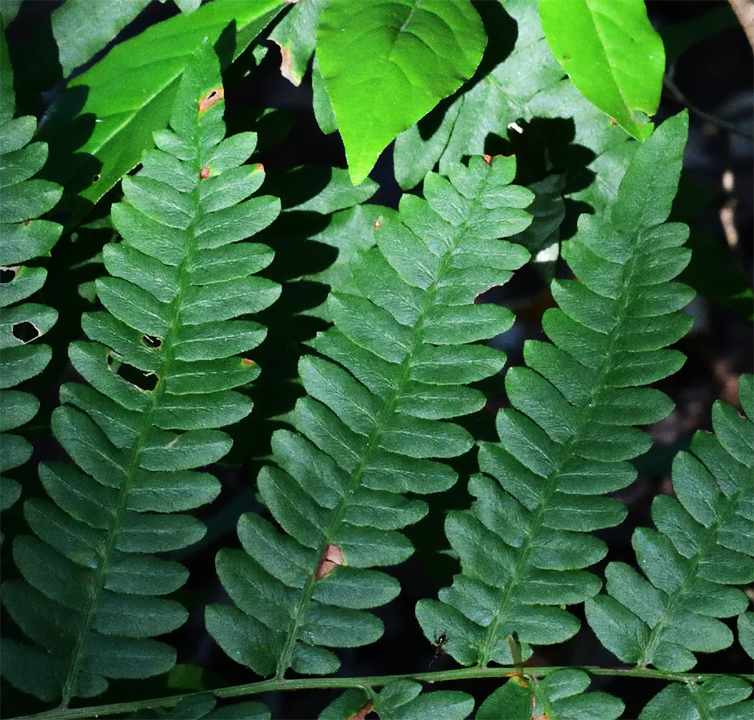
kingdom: Plantae
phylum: Tracheophyta
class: Polypodiopsida
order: Polypodiales
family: Dennstaedtiaceae
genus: Pteridium
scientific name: Pteridium aquilinum
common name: Bracken
